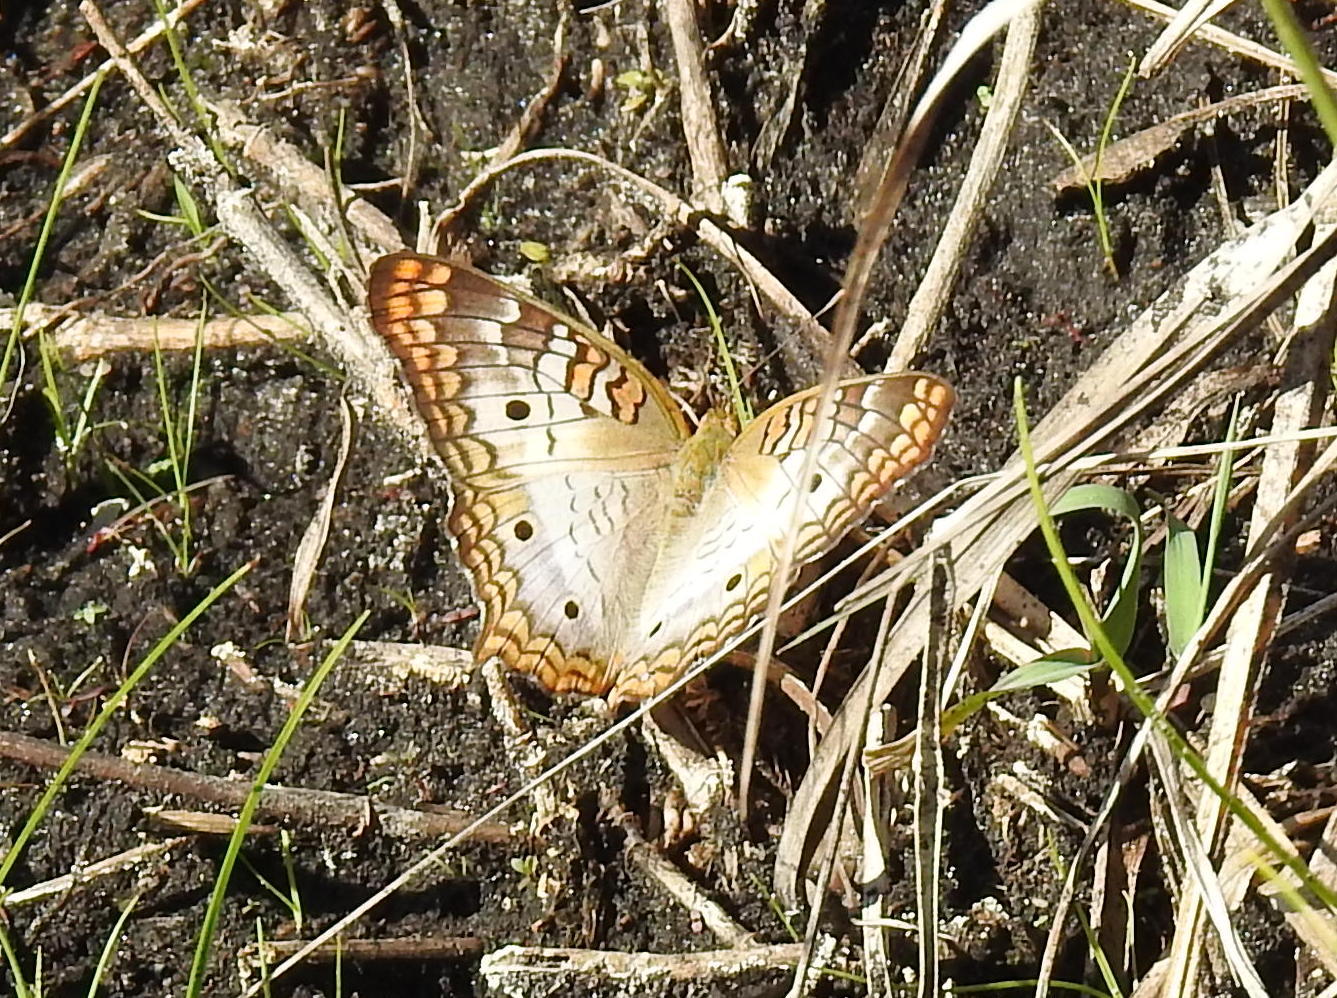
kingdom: Animalia
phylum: Arthropoda
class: Insecta
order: Lepidoptera
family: Nymphalidae
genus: Anartia
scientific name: Anartia jatrophae
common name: White peacock
